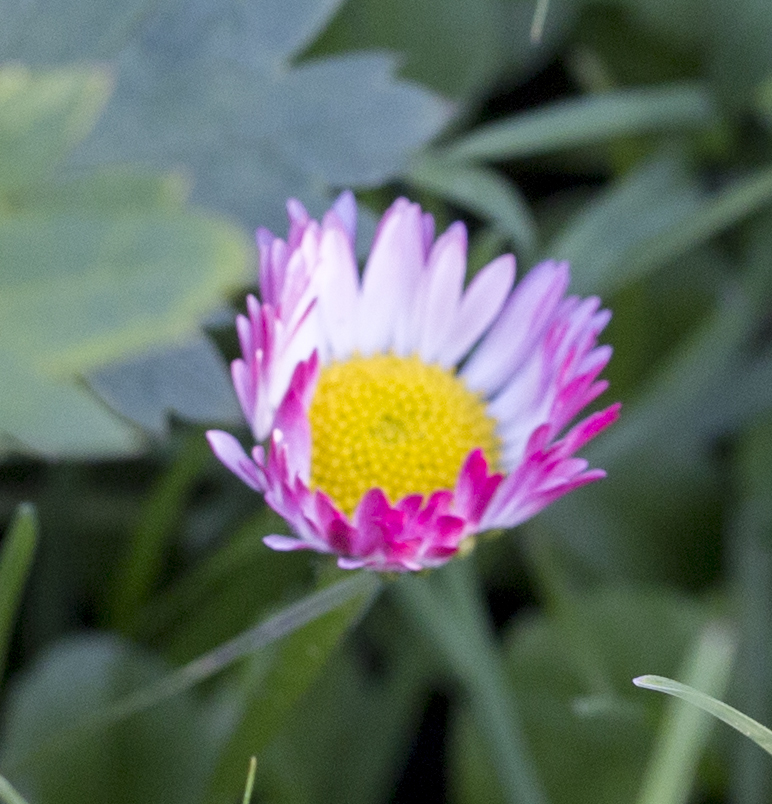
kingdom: Plantae
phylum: Tracheophyta
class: Magnoliopsida
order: Asterales
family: Asteraceae
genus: Bellis
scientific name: Bellis perennis
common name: Lawndaisy
